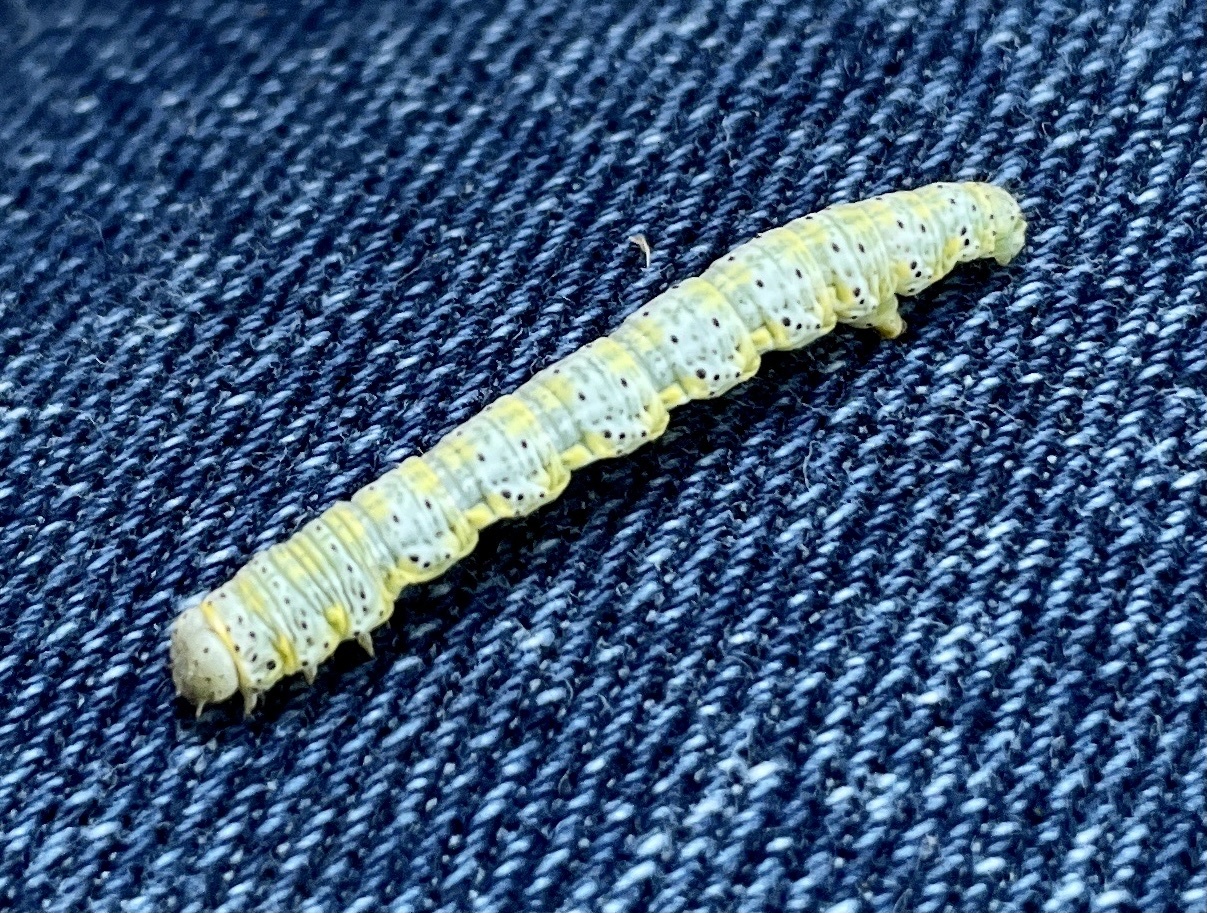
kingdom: Animalia
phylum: Arthropoda
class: Insecta
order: Lepidoptera
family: Geometridae
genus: Isturgia
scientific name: Isturgia dislocaria
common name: Pale-viened enconista
